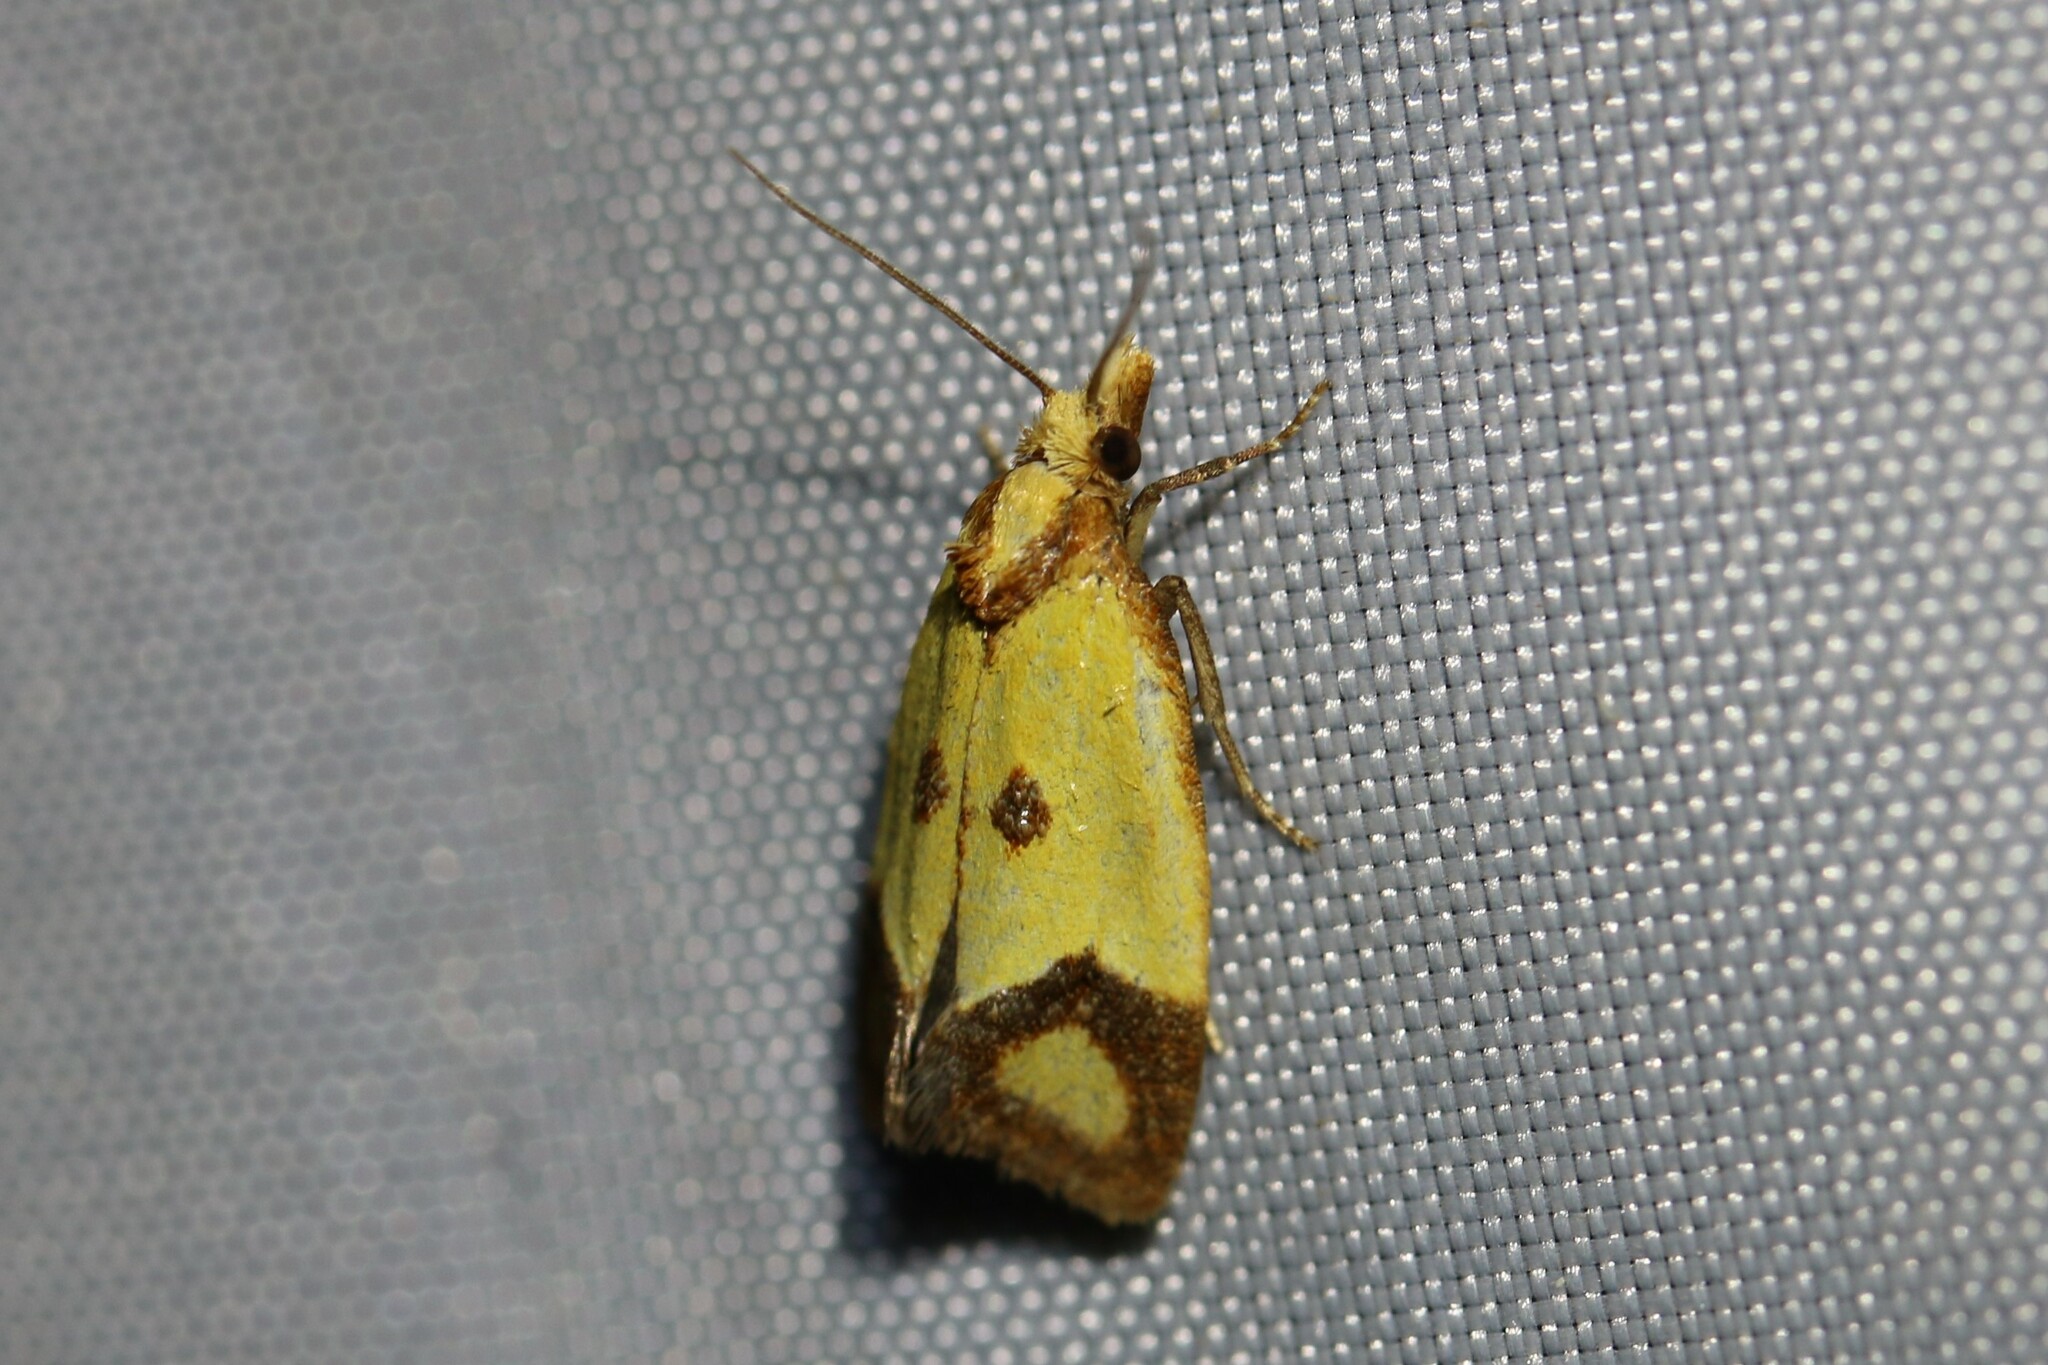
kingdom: Animalia
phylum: Arthropoda
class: Insecta
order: Lepidoptera
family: Tortricidae
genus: Agapeta
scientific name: Agapeta zoegana
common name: Sulfur knapweed root moth
